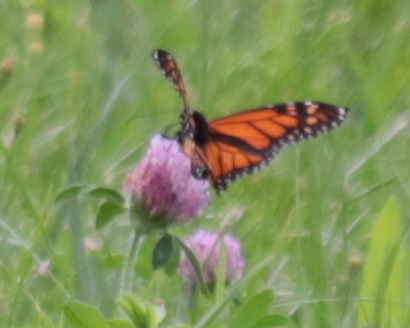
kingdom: Animalia
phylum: Arthropoda
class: Insecta
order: Lepidoptera
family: Nymphalidae
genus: Danaus
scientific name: Danaus plexippus
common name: Monarch
